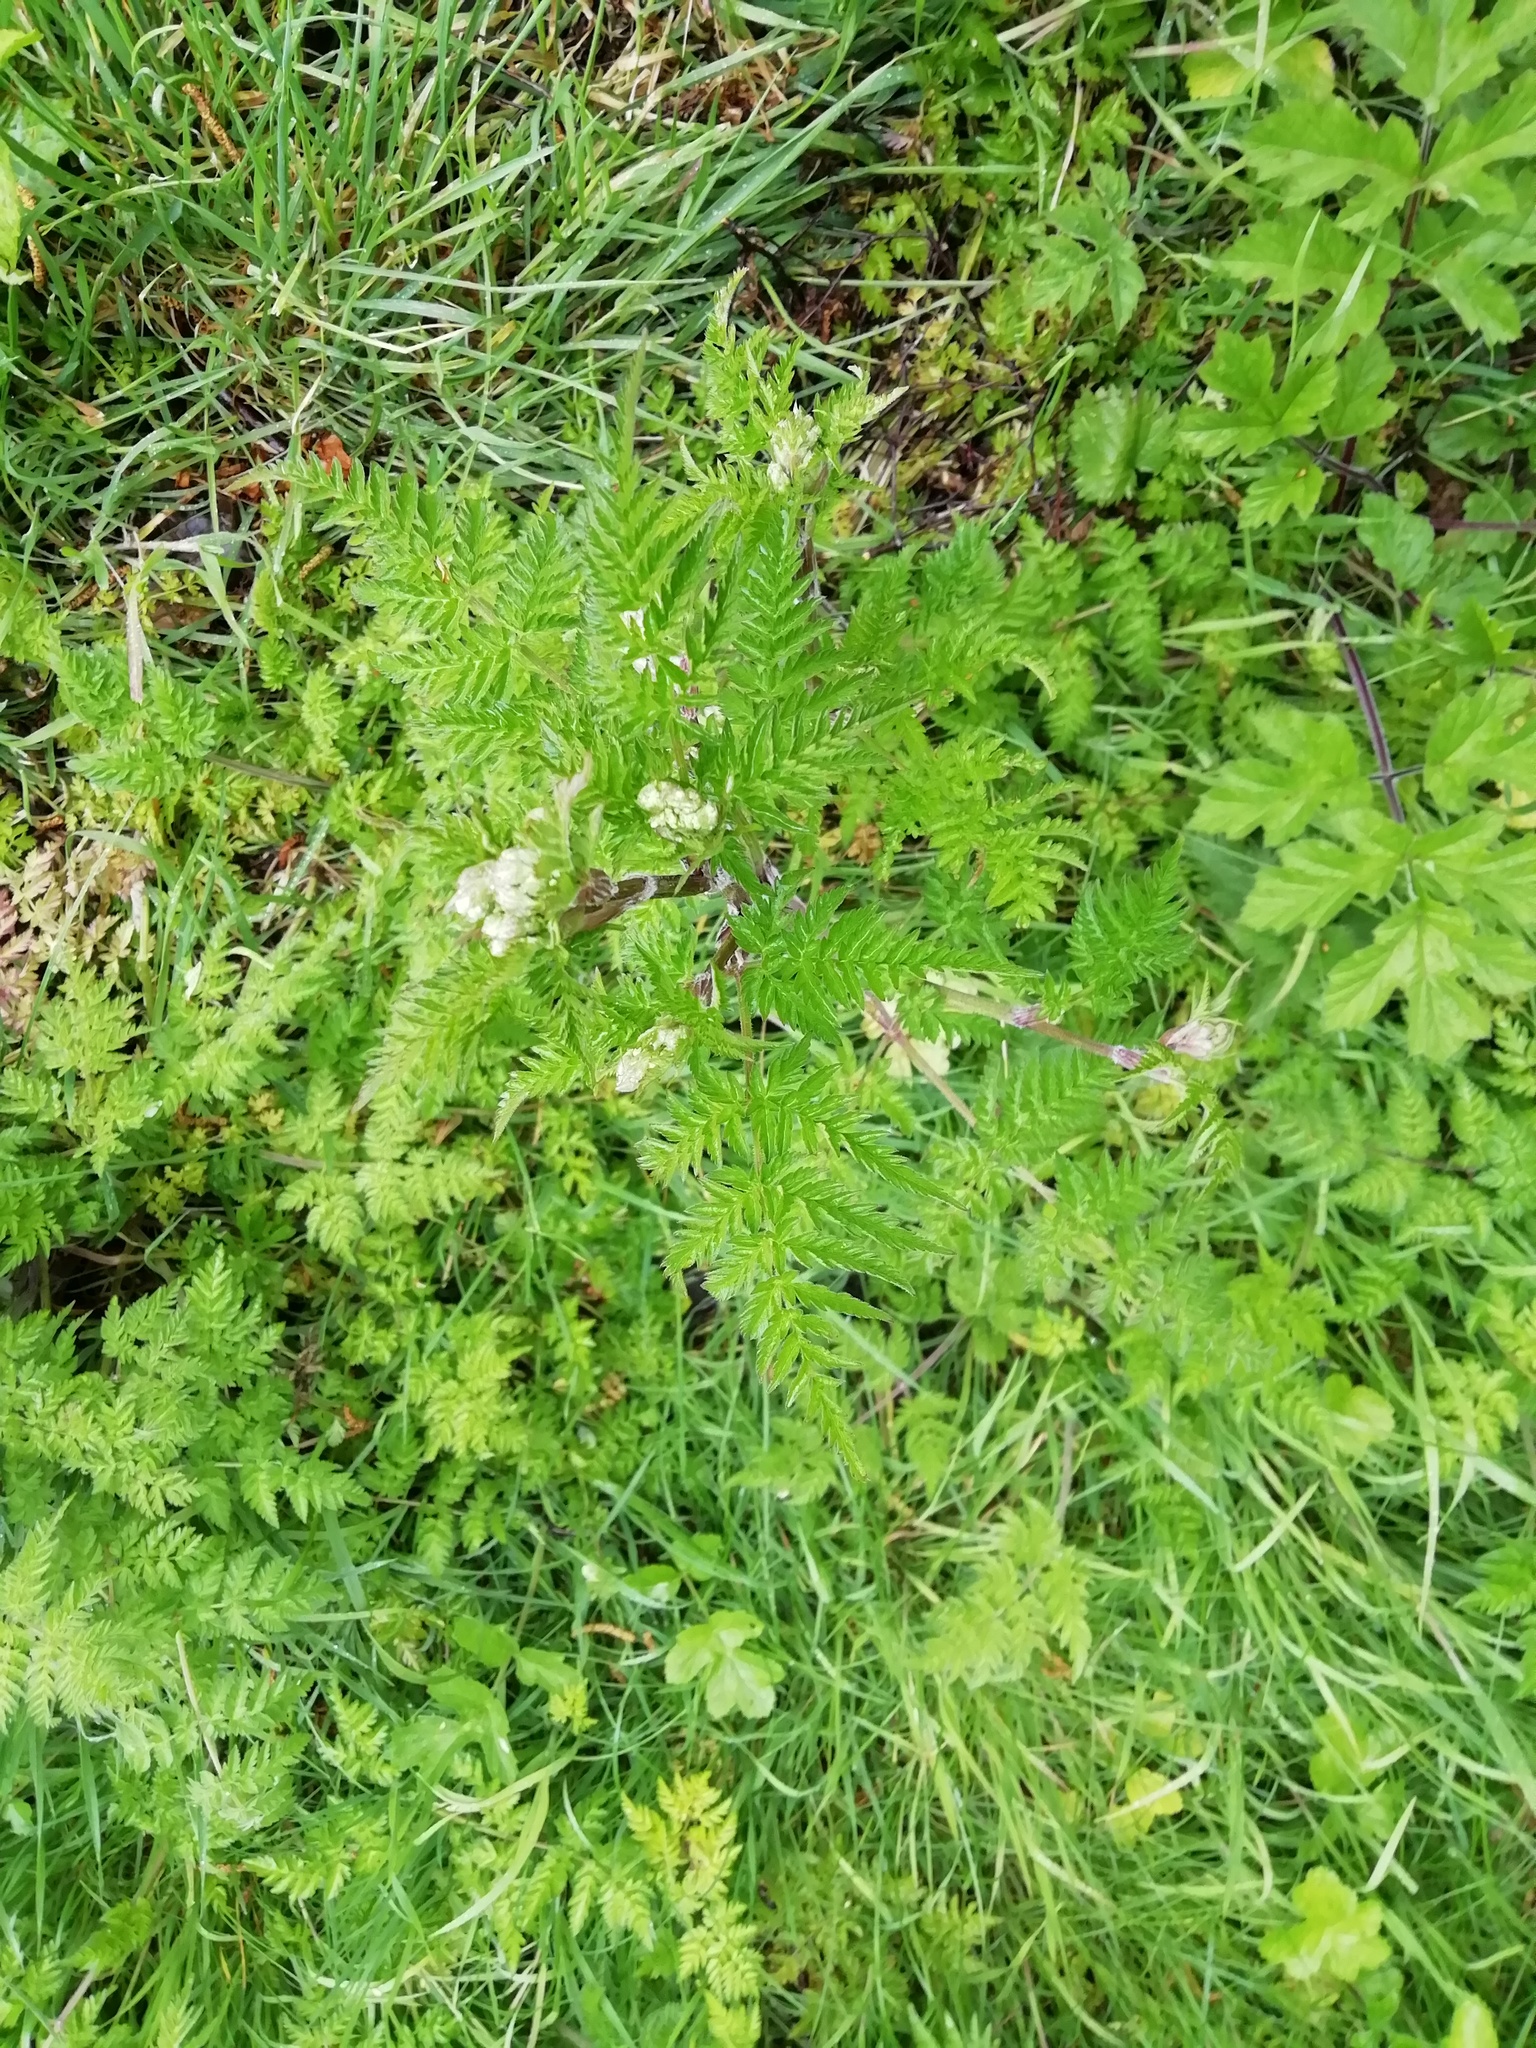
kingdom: Plantae
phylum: Tracheophyta
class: Magnoliopsida
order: Apiales
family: Apiaceae
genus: Anthriscus
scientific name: Anthriscus sylvestris
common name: Cow parsley
